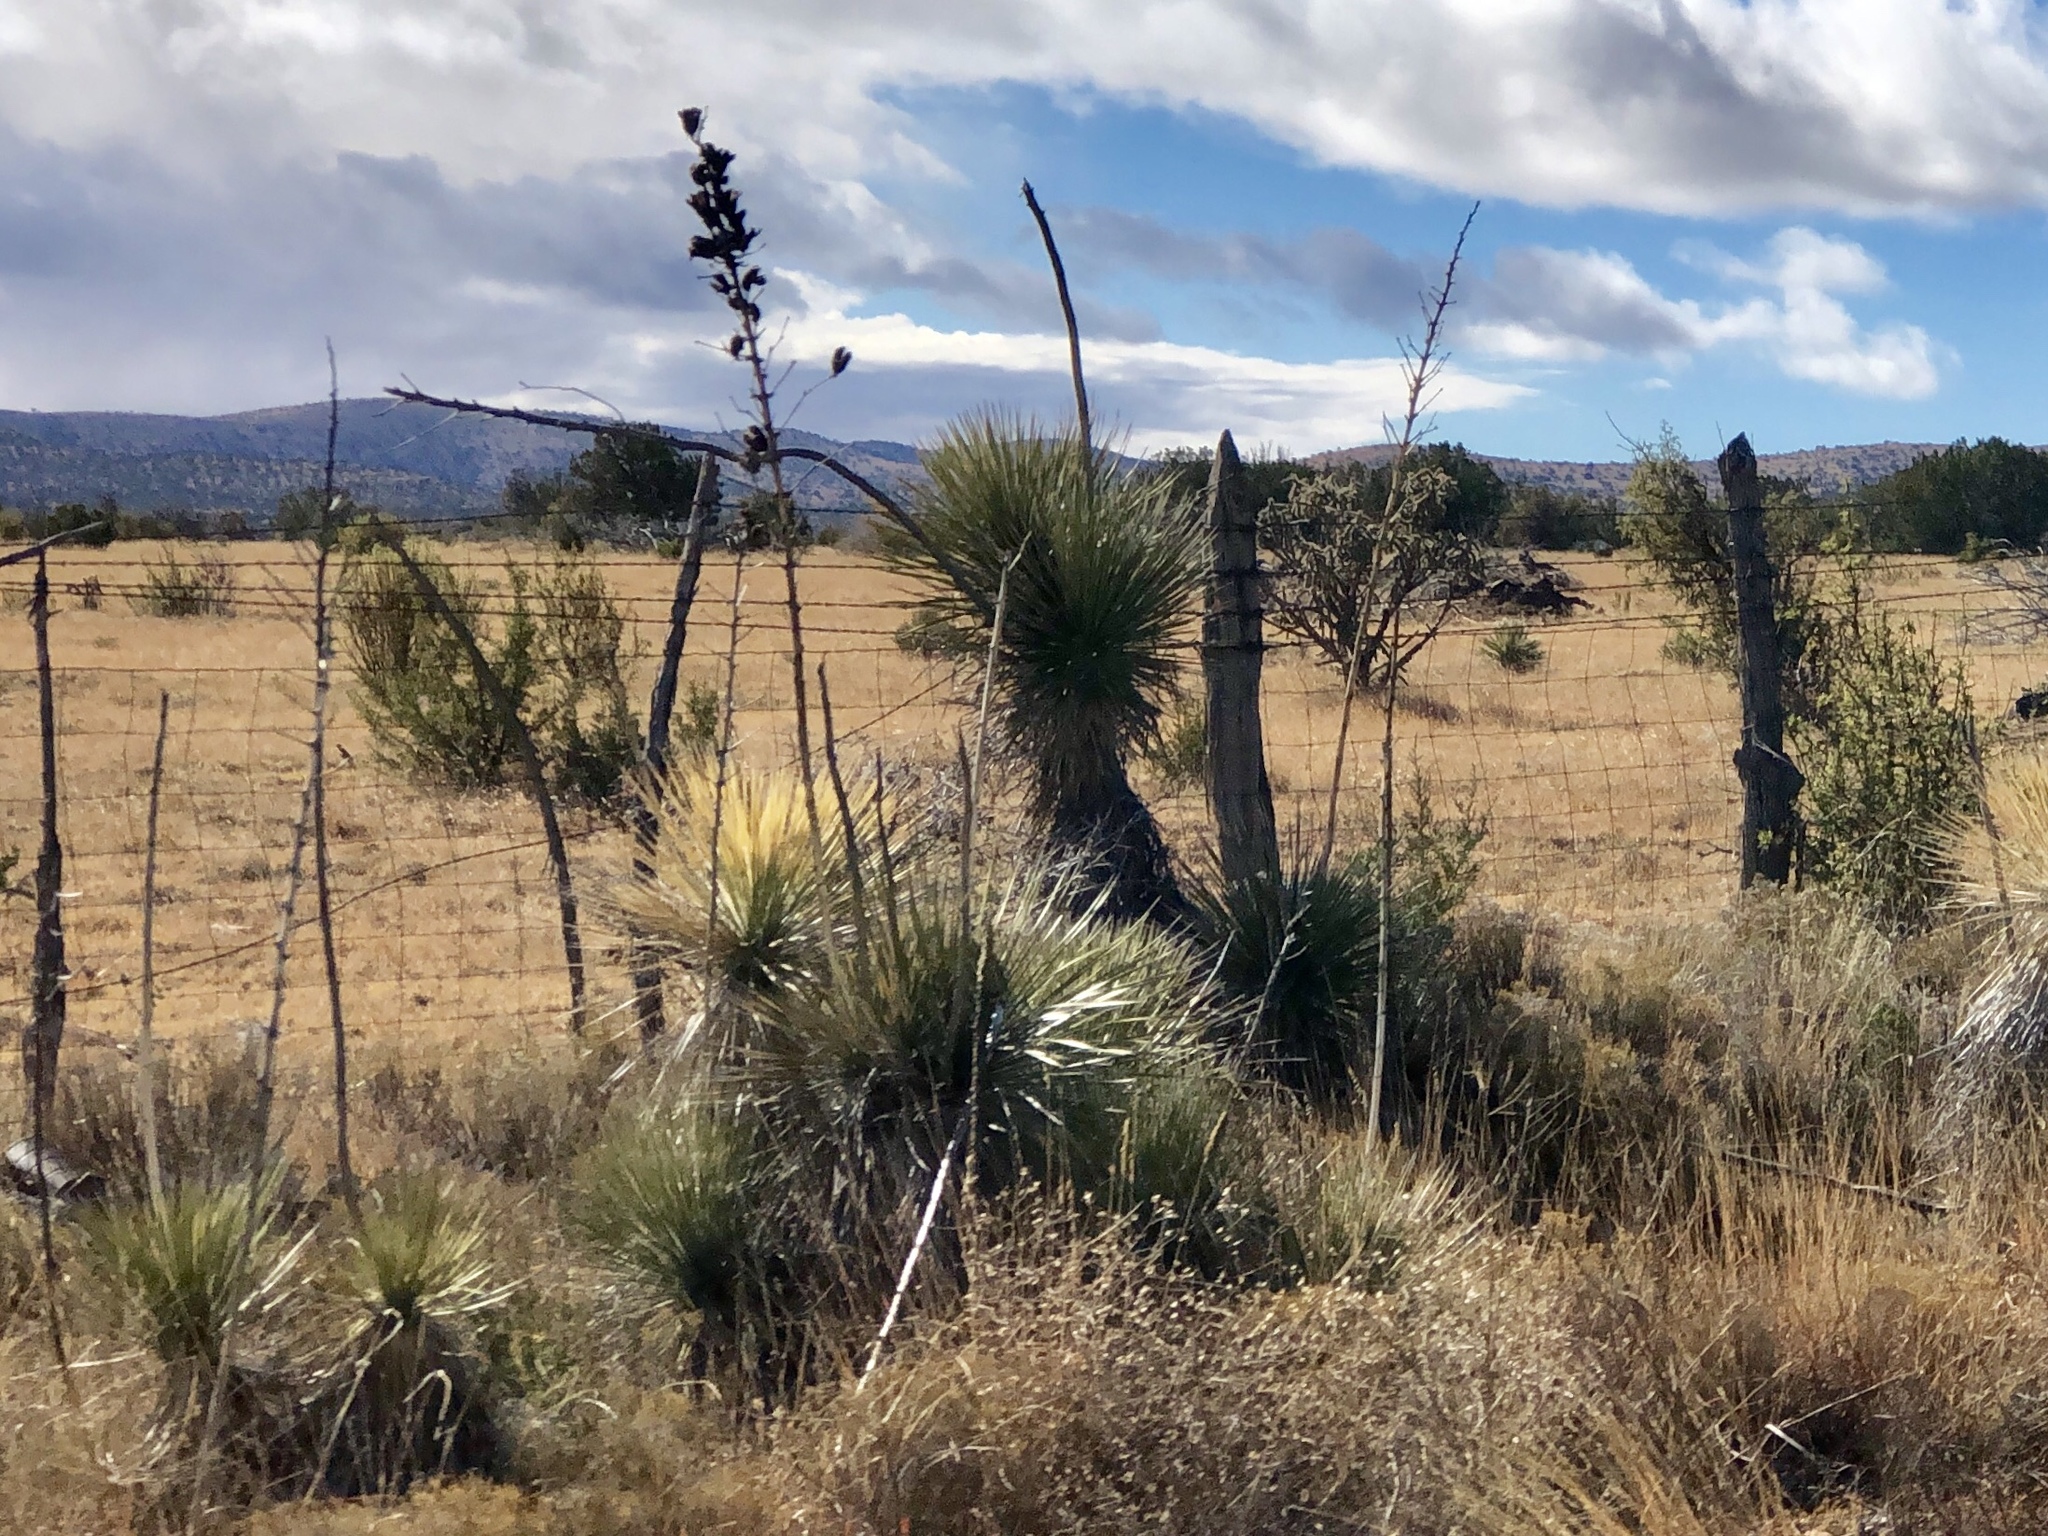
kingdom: Plantae
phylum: Tracheophyta
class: Liliopsida
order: Asparagales
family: Asparagaceae
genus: Yucca
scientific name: Yucca elata
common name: Palmella
